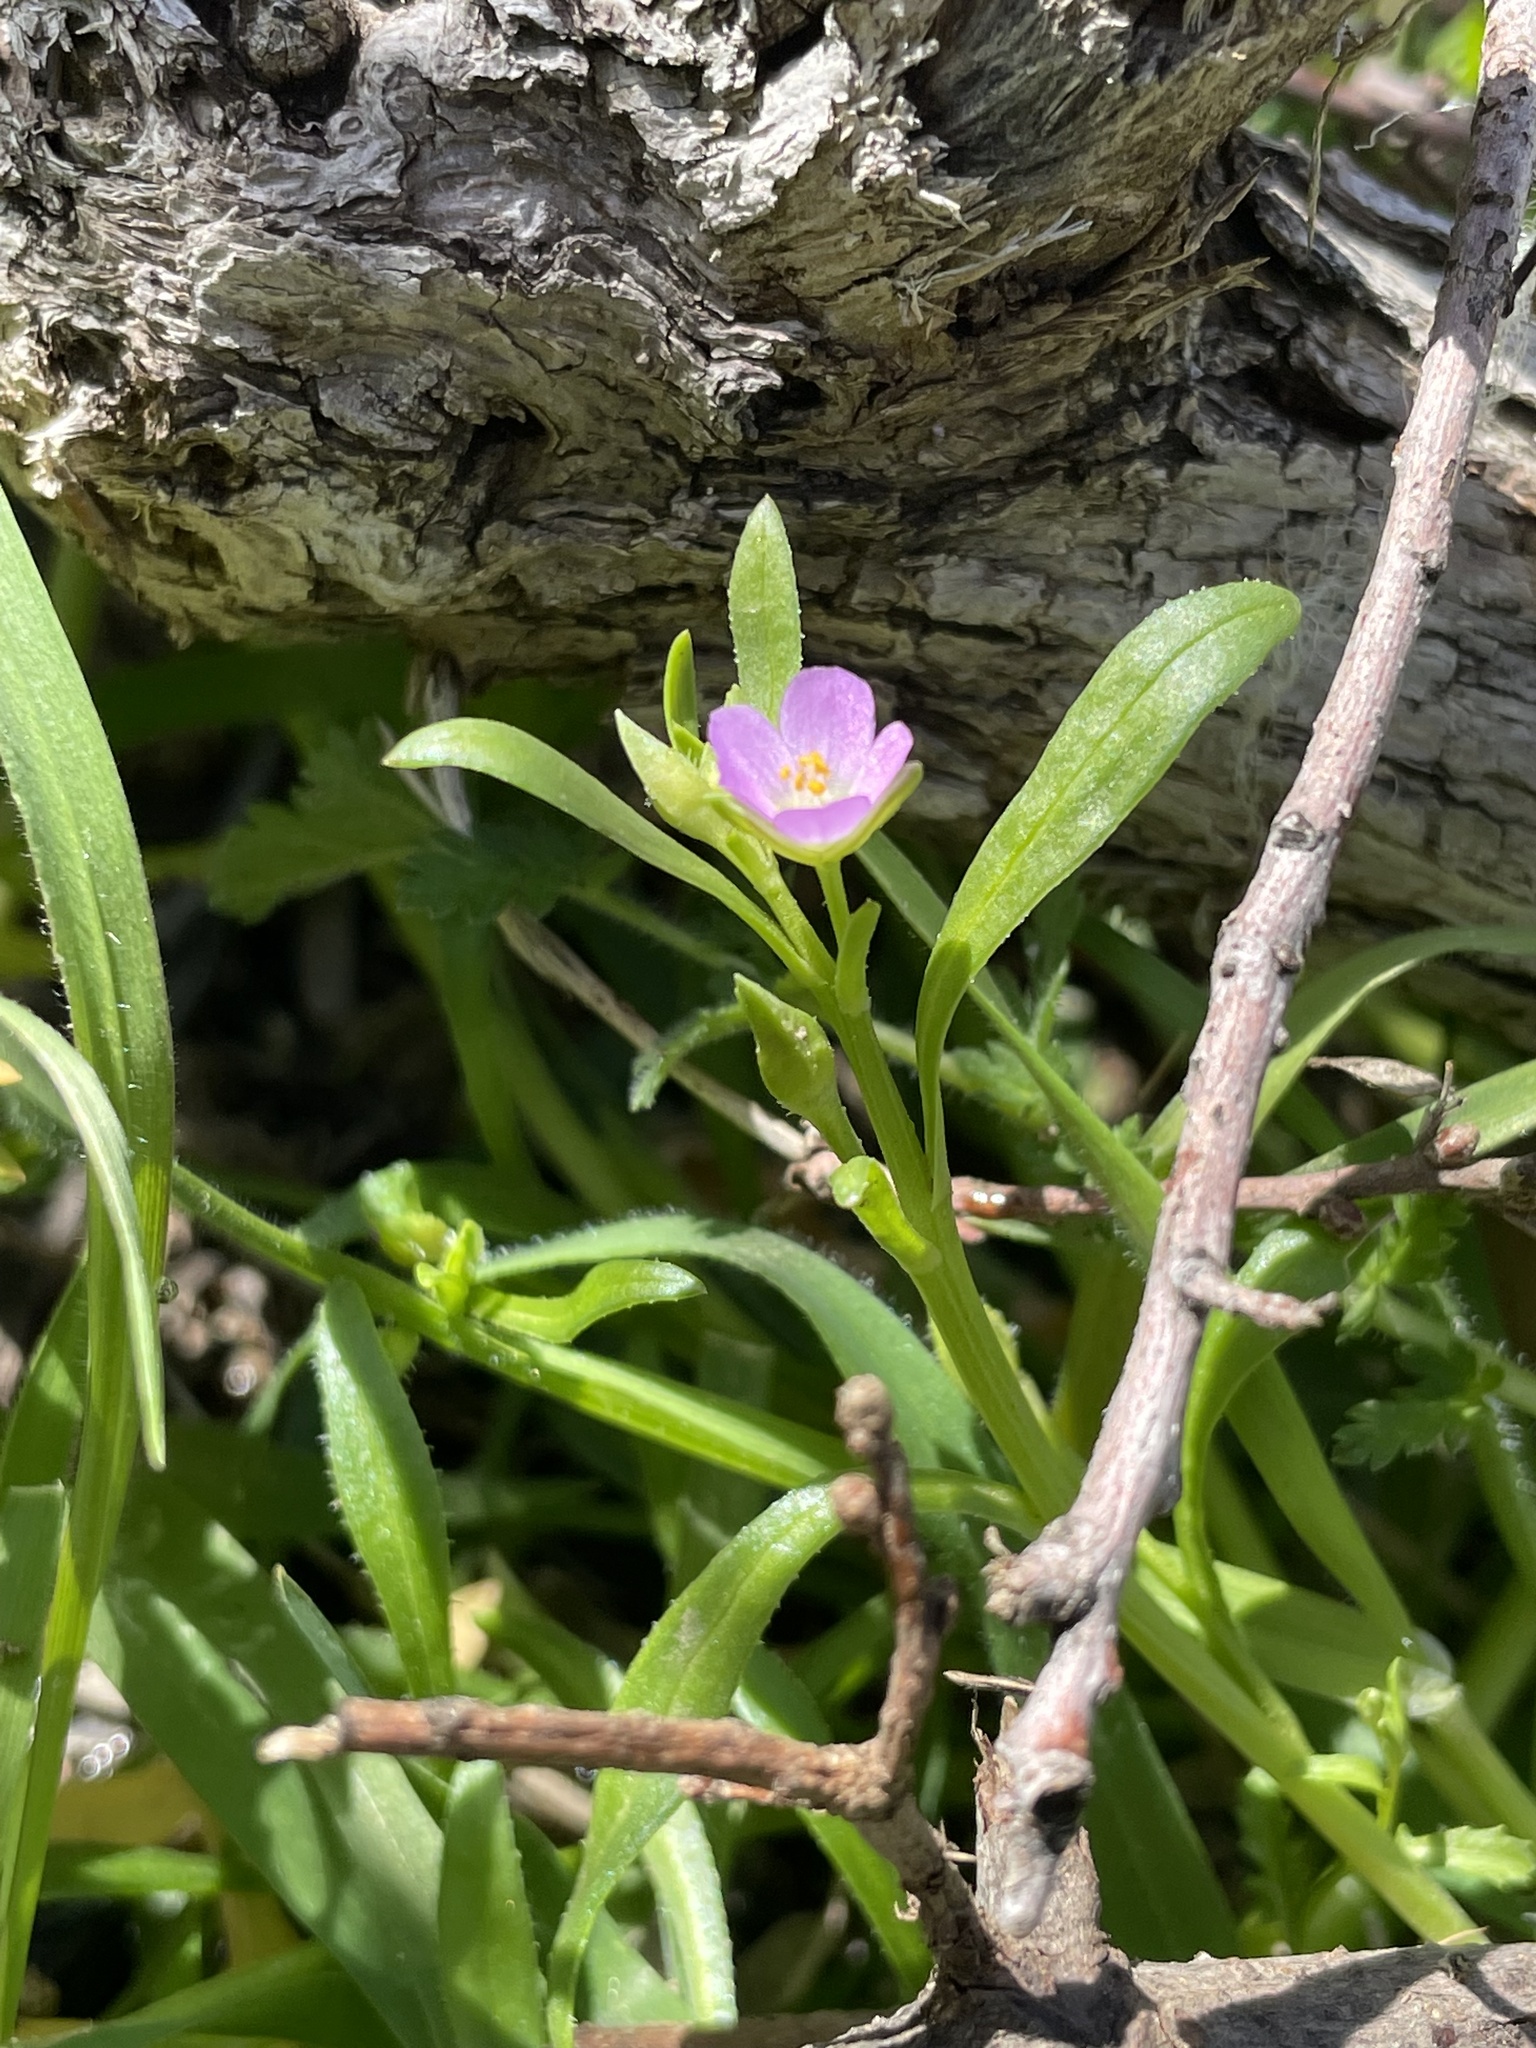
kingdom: Plantae
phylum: Tracheophyta
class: Magnoliopsida
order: Caryophyllales
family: Montiaceae
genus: Calandrinia
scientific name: Calandrinia menziesii
